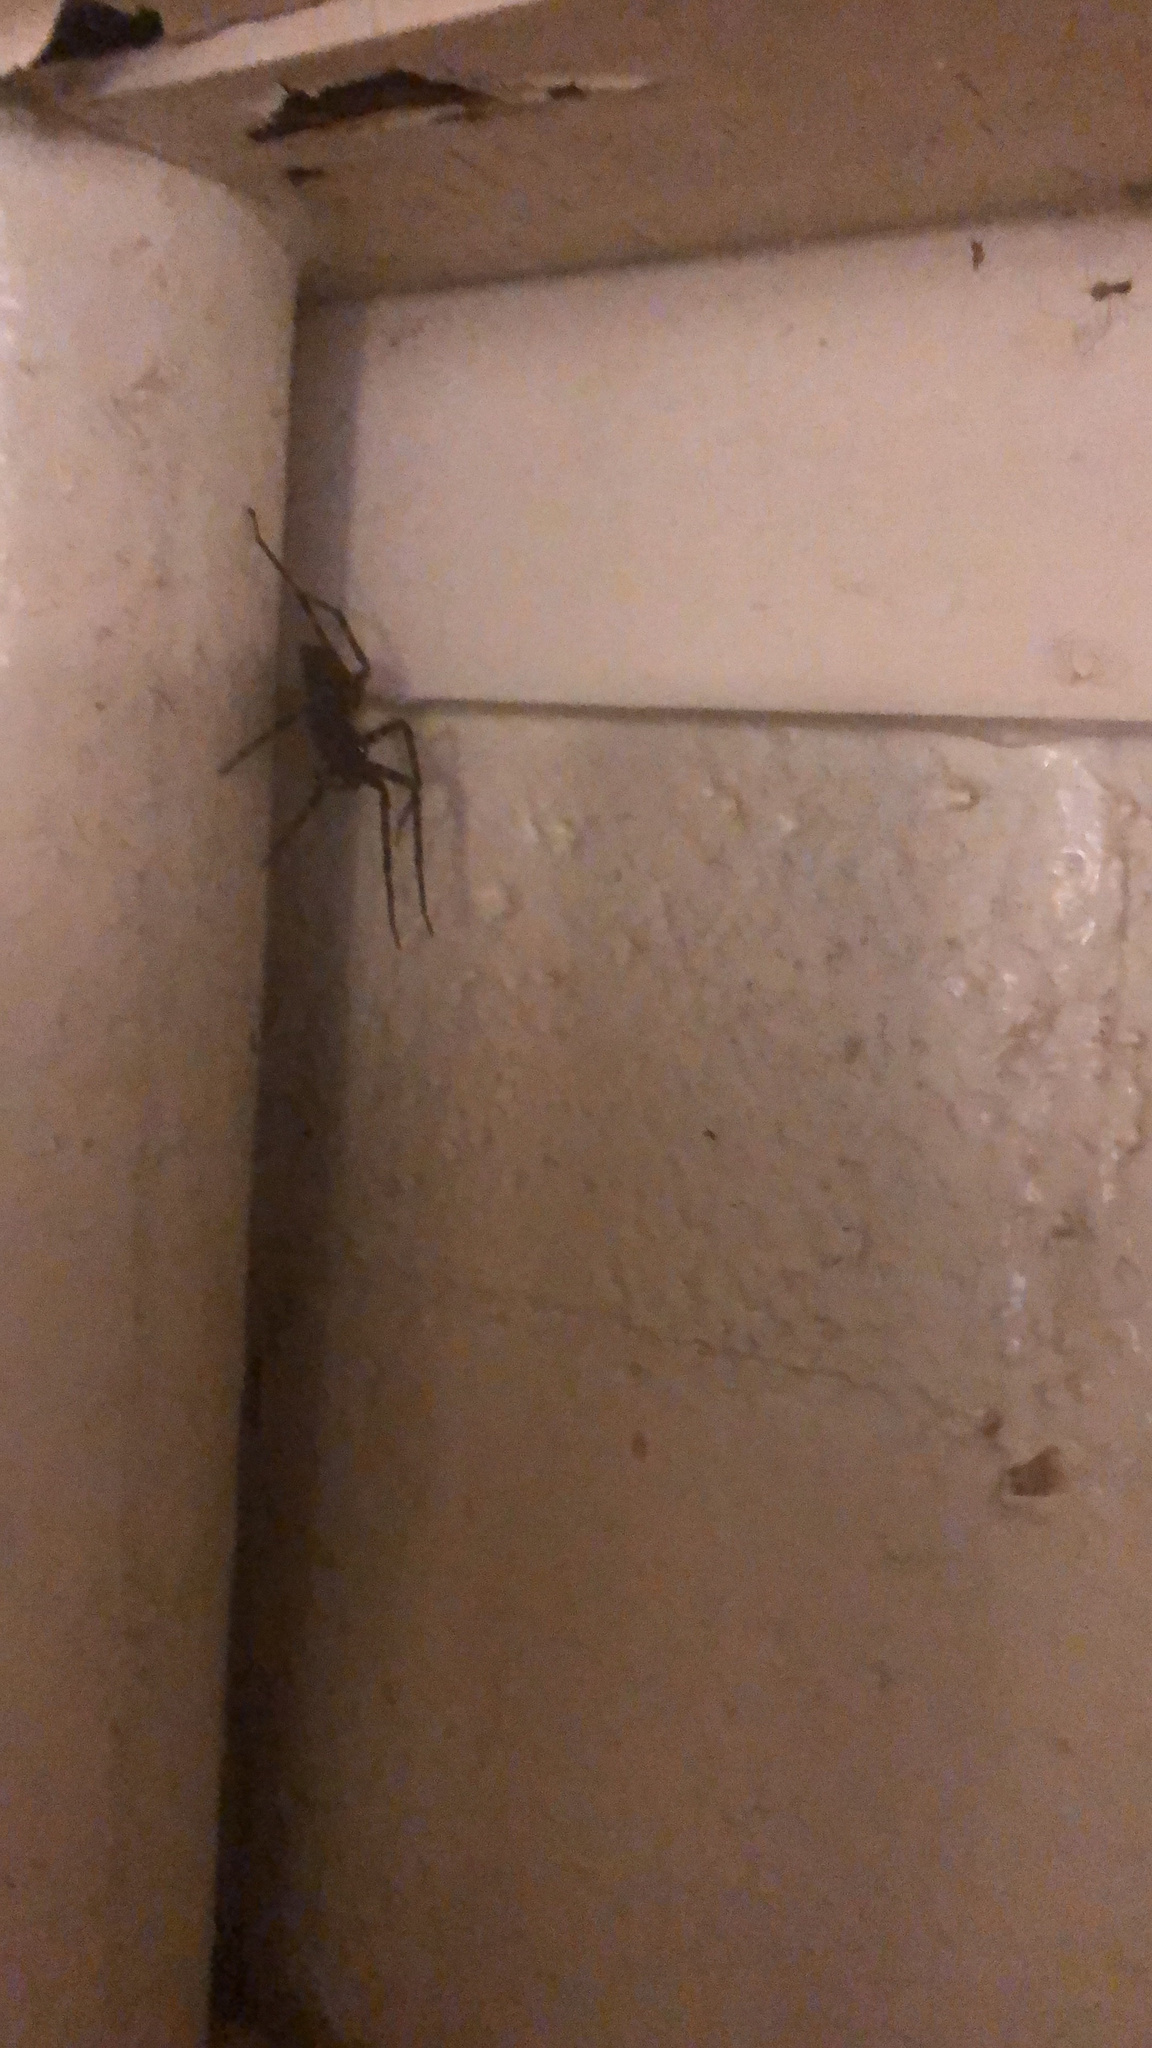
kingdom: Animalia
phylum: Arthropoda
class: Arachnida
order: Araneae
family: Pisauridae
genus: Dolomedes
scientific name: Dolomedes tenebrosus
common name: Dark fishing spider
